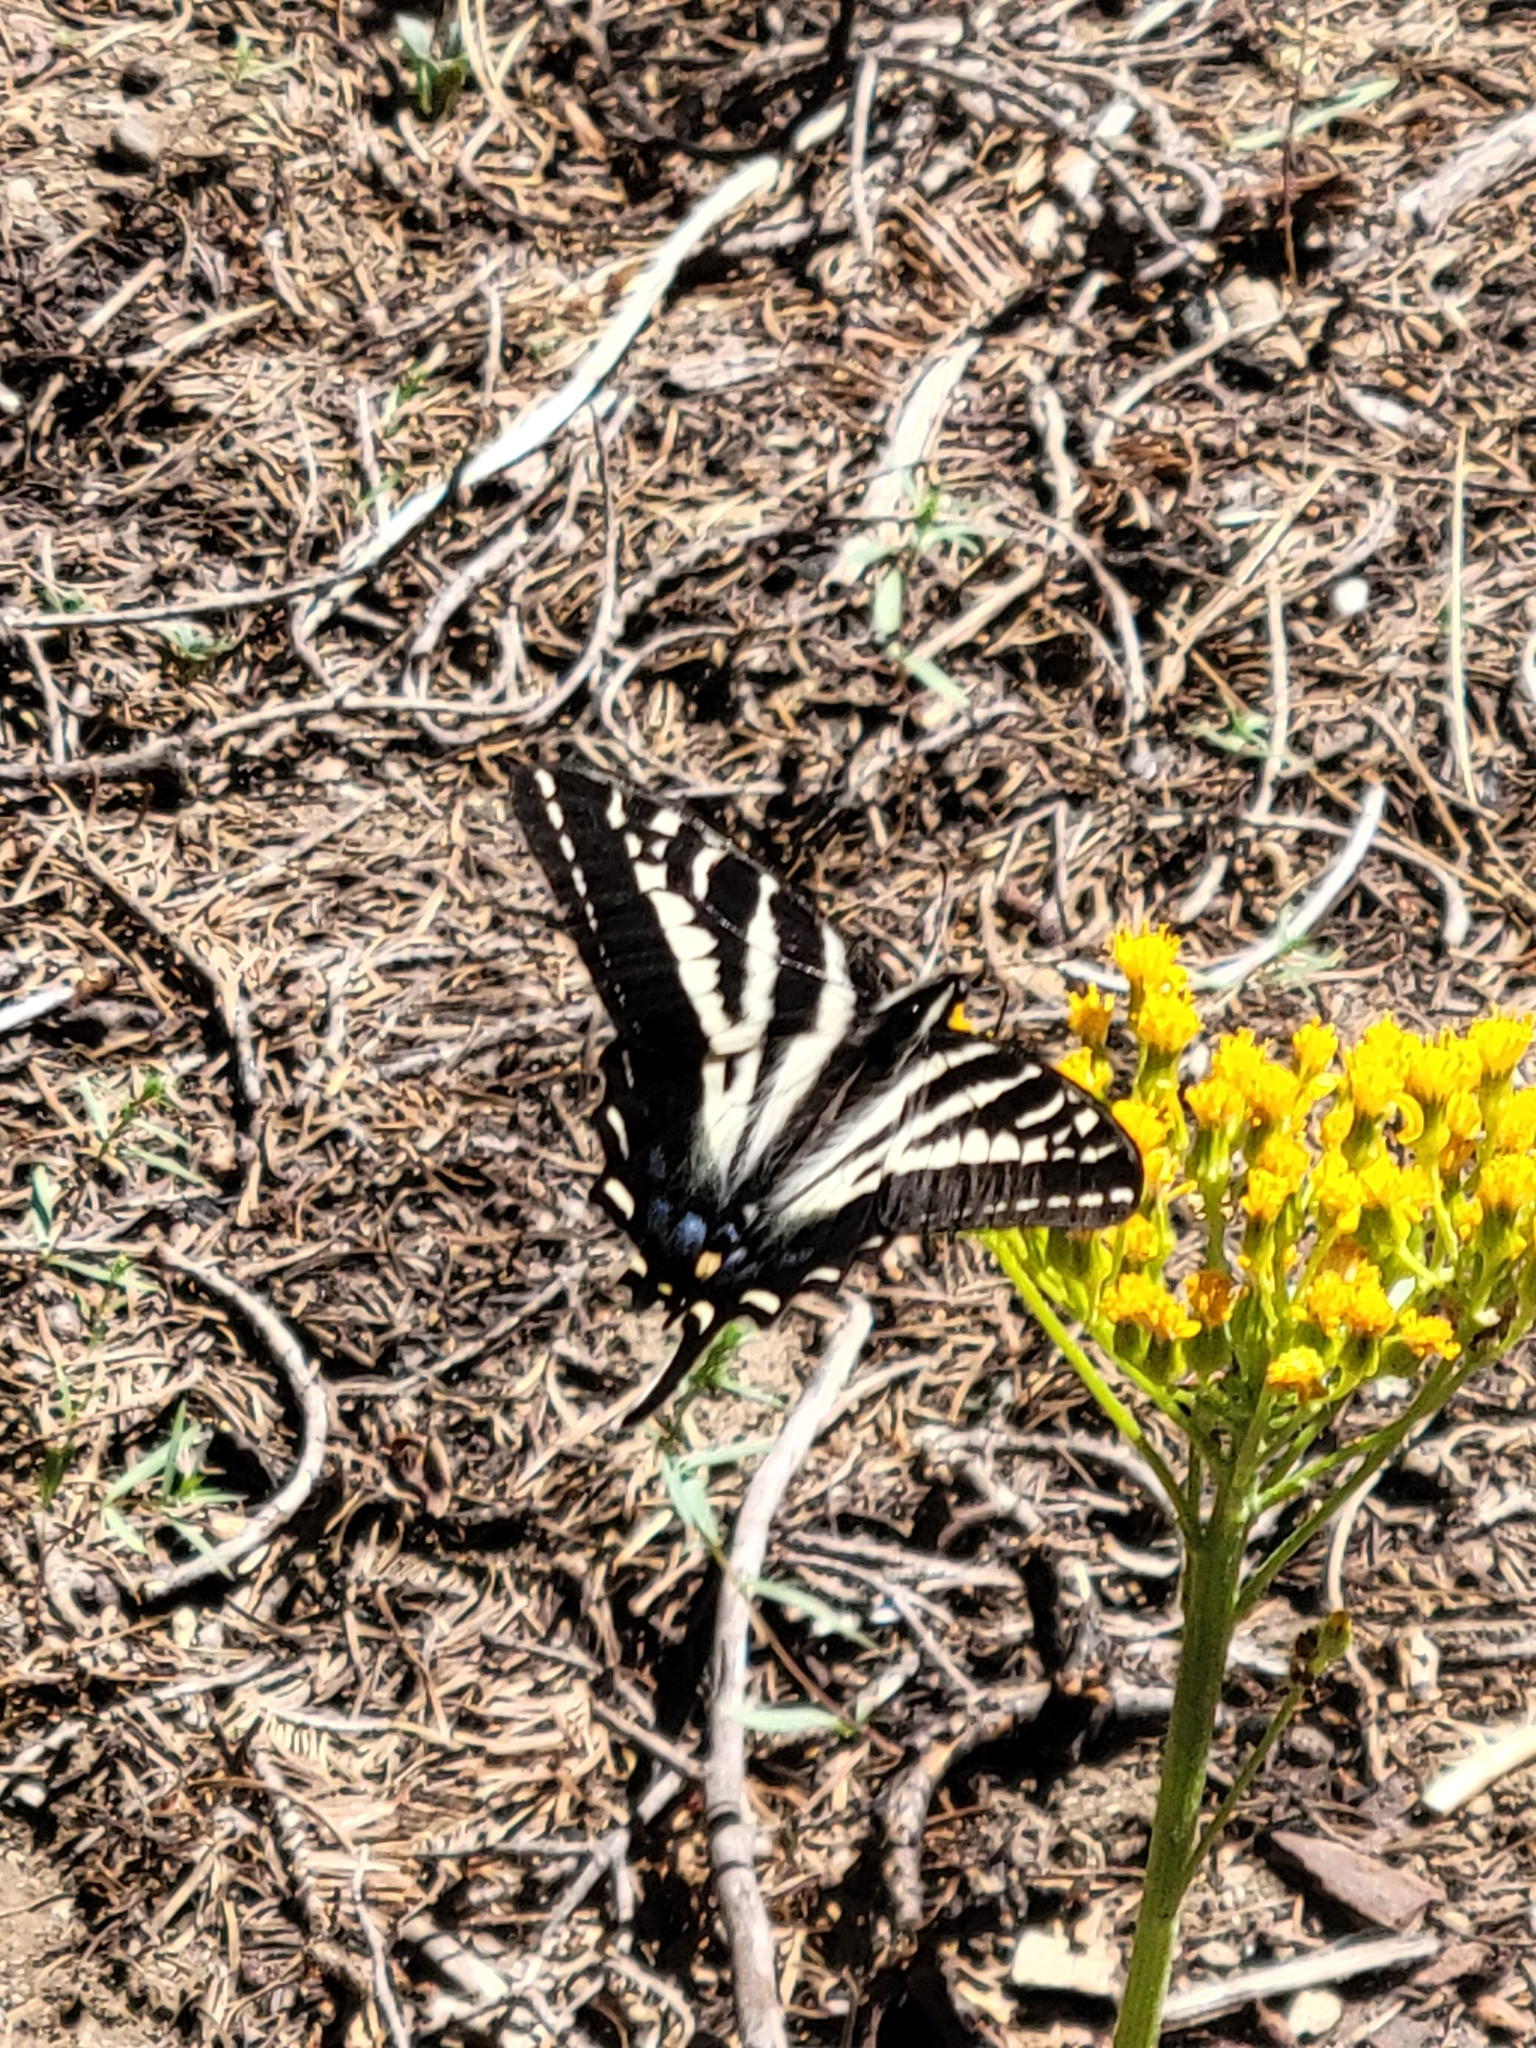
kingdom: Animalia
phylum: Arthropoda
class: Insecta
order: Lepidoptera
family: Papilionidae
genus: Papilio
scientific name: Papilio eurymedon
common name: Pale tiger swallowtail
